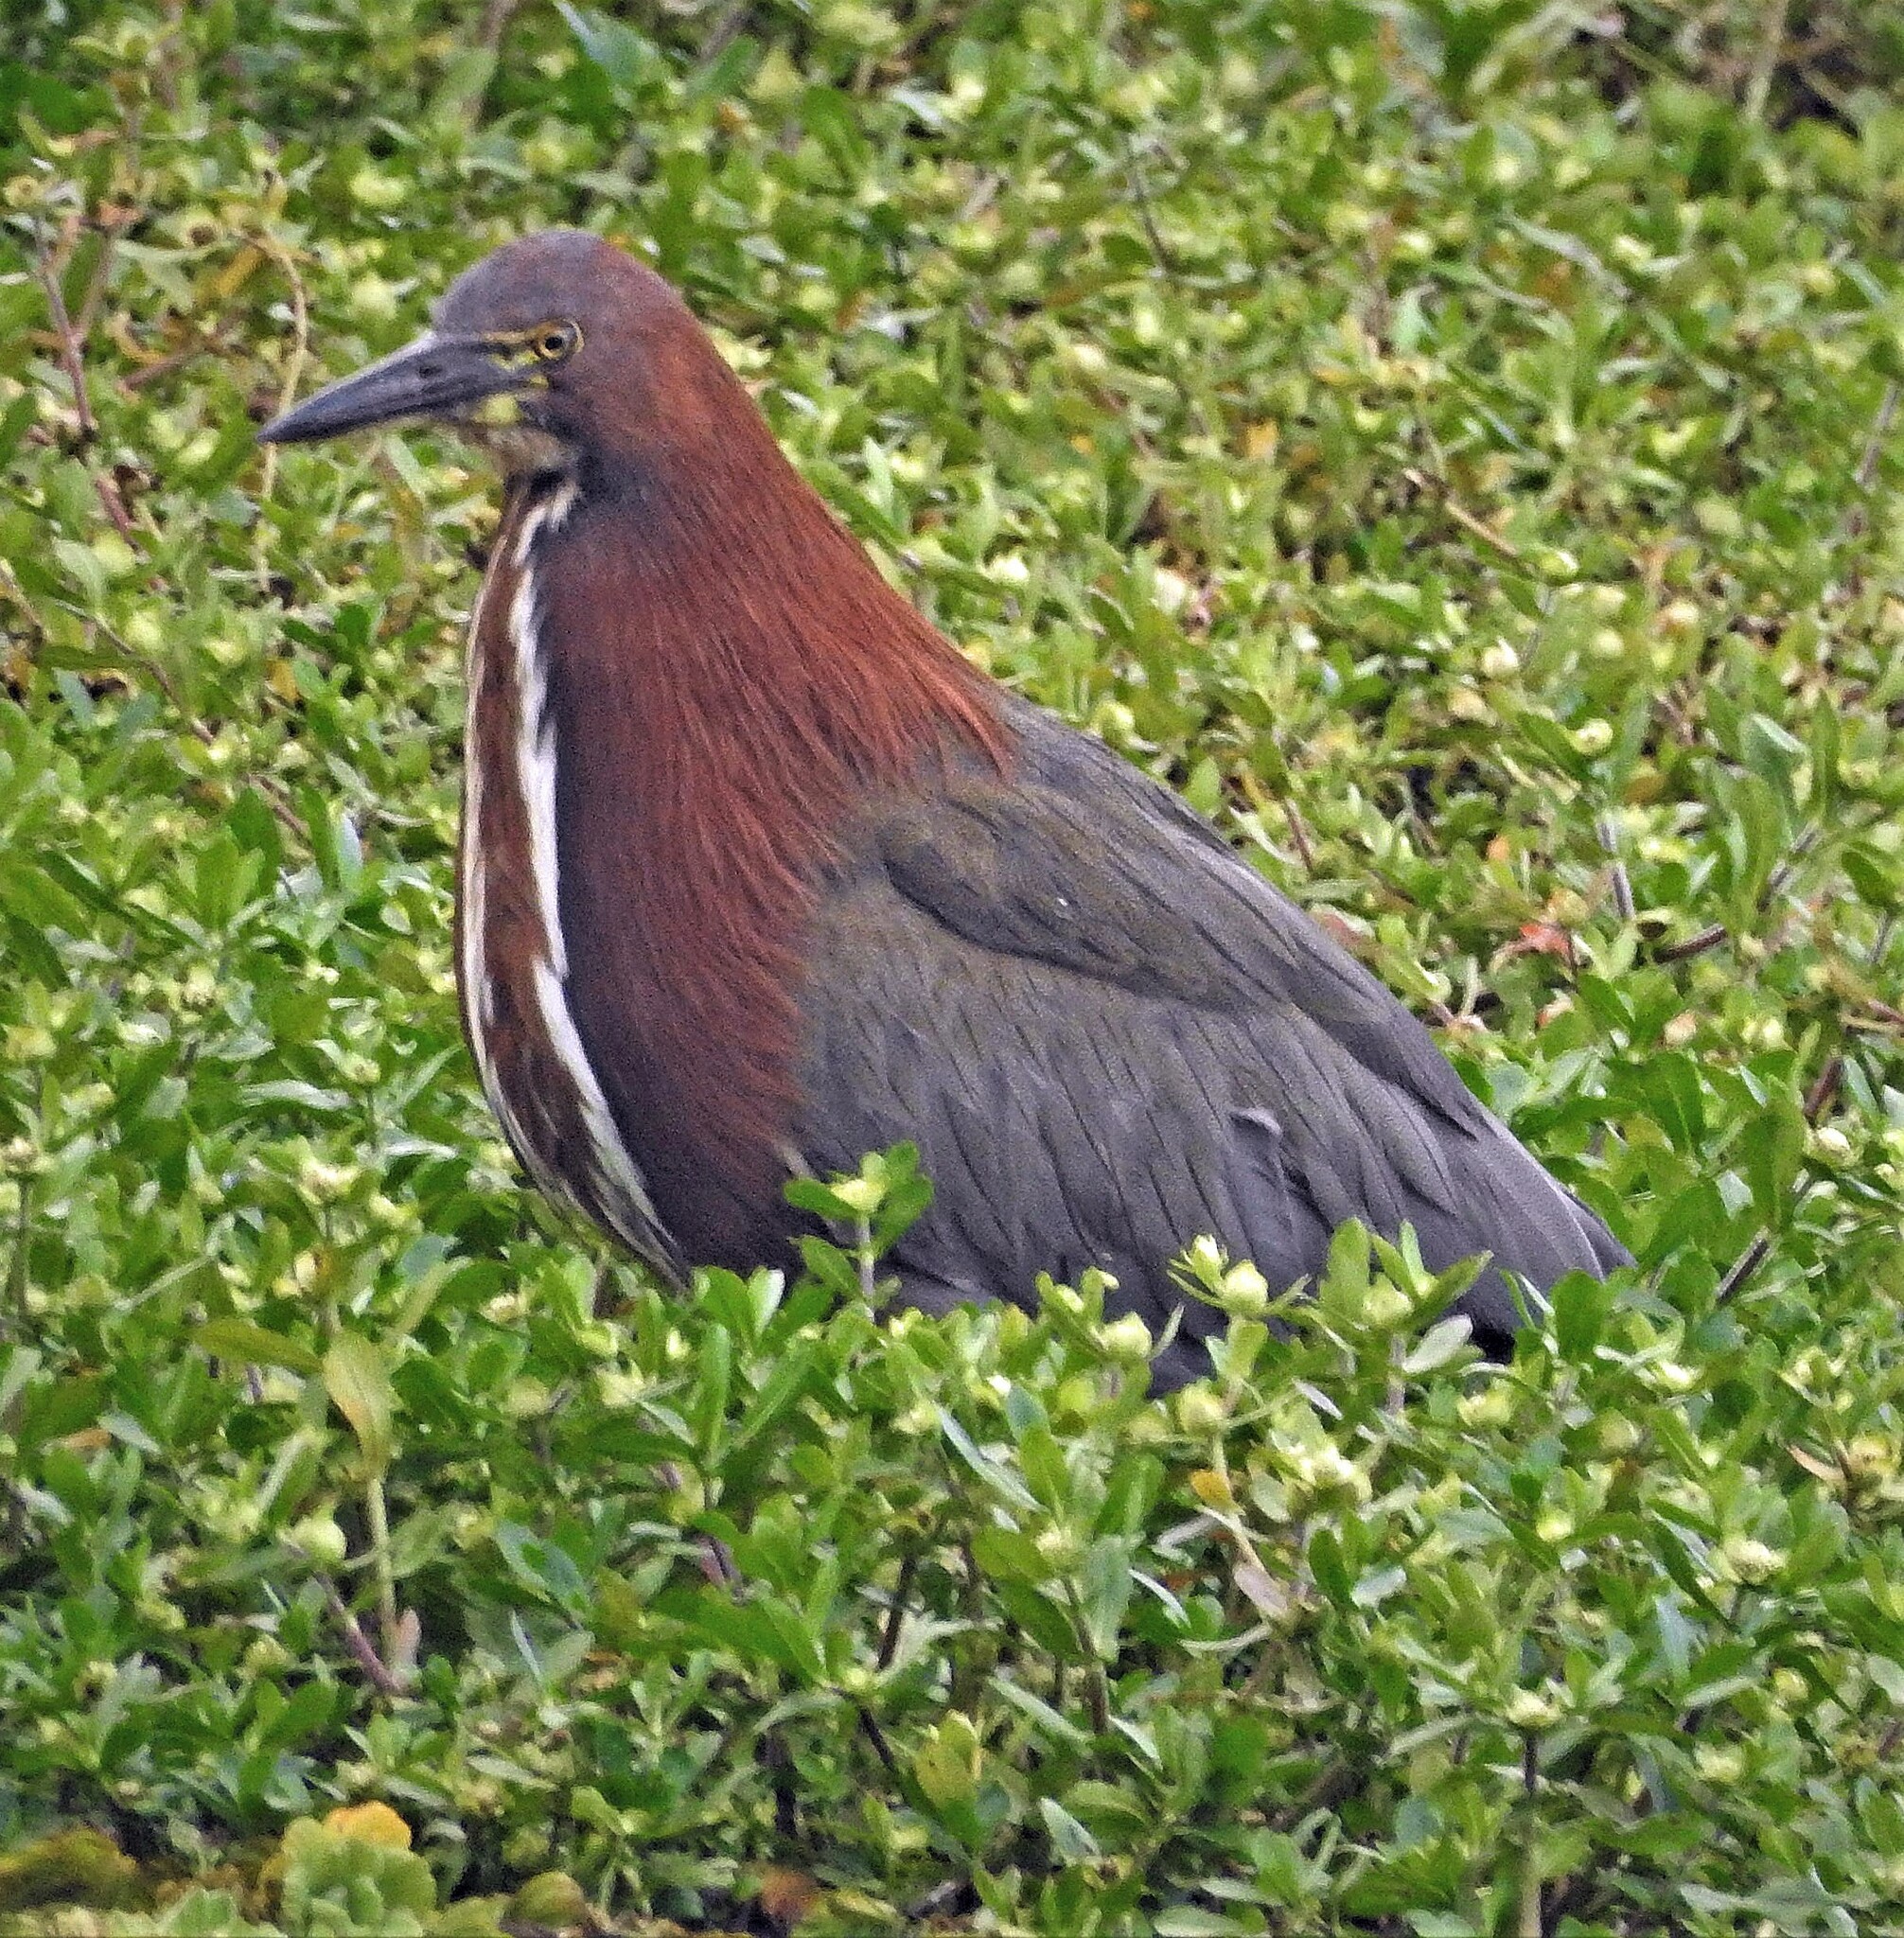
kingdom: Animalia
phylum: Chordata
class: Aves
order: Pelecaniformes
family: Ardeidae
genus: Tigrisoma
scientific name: Tigrisoma lineatum
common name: Rufescent tiger-heron
